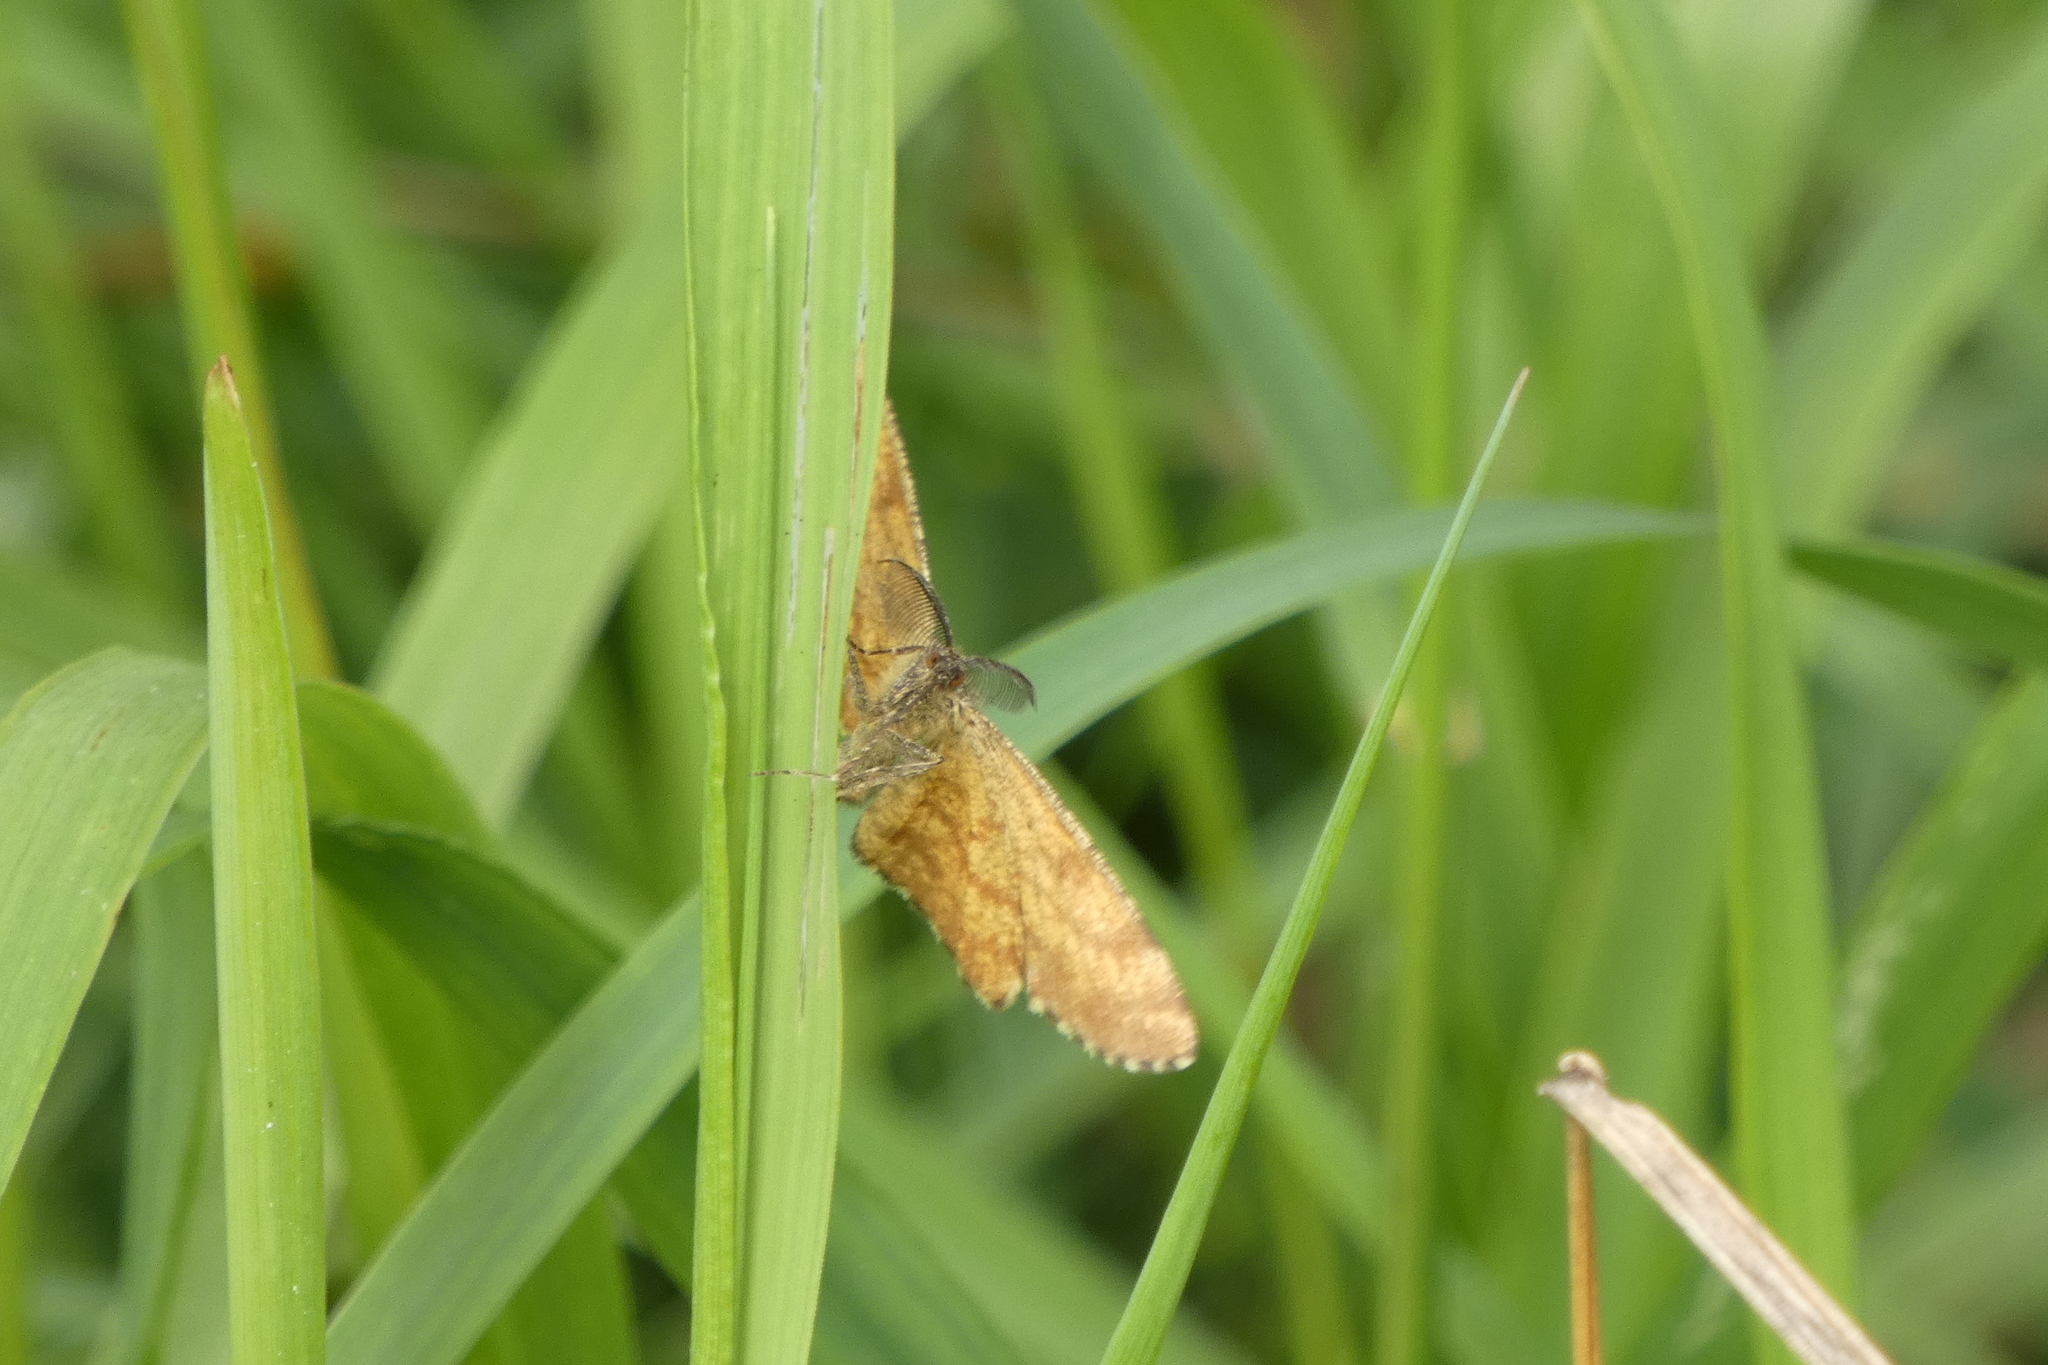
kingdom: Animalia
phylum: Arthropoda
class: Insecta
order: Lepidoptera
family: Geometridae
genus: Ematurga
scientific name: Ematurga atomaria
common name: Common heath
